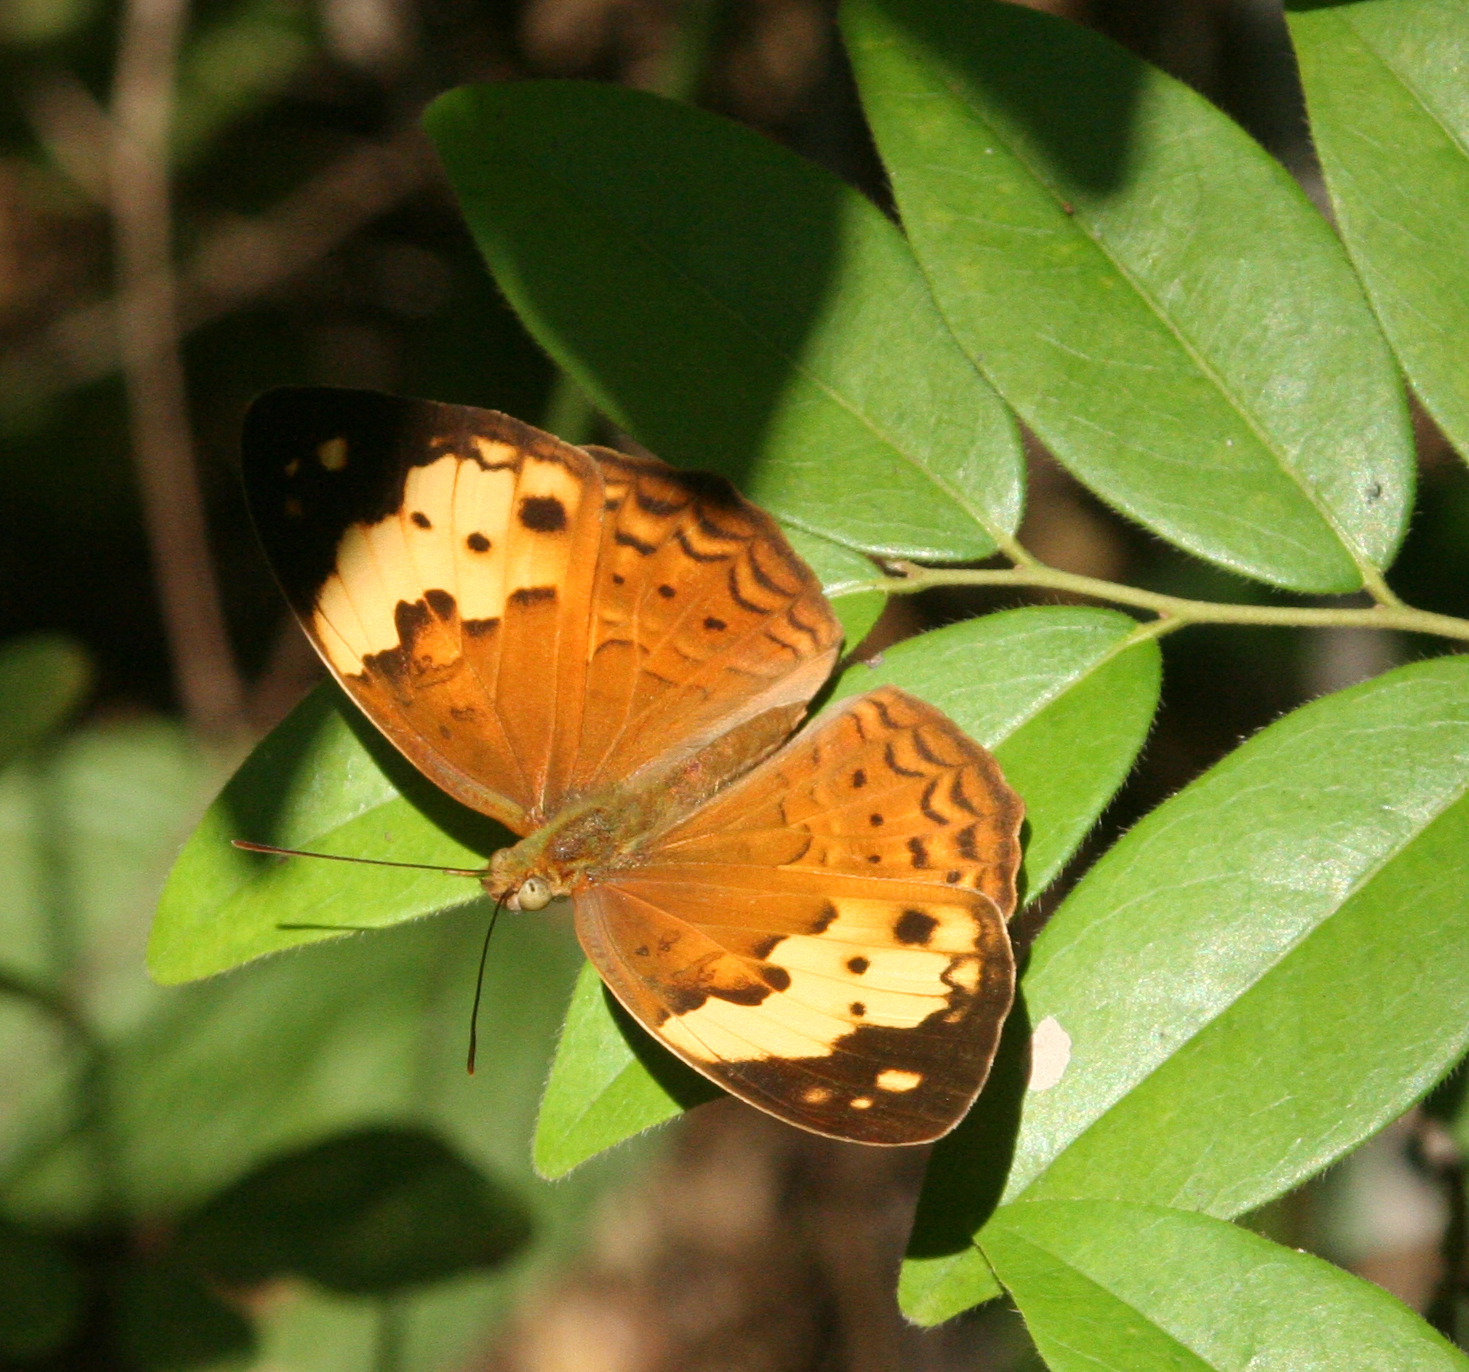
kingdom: Animalia
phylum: Arthropoda
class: Insecta
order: Lepidoptera
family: Nymphalidae
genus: Cupha
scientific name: Cupha erymanthis
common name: Rustic
